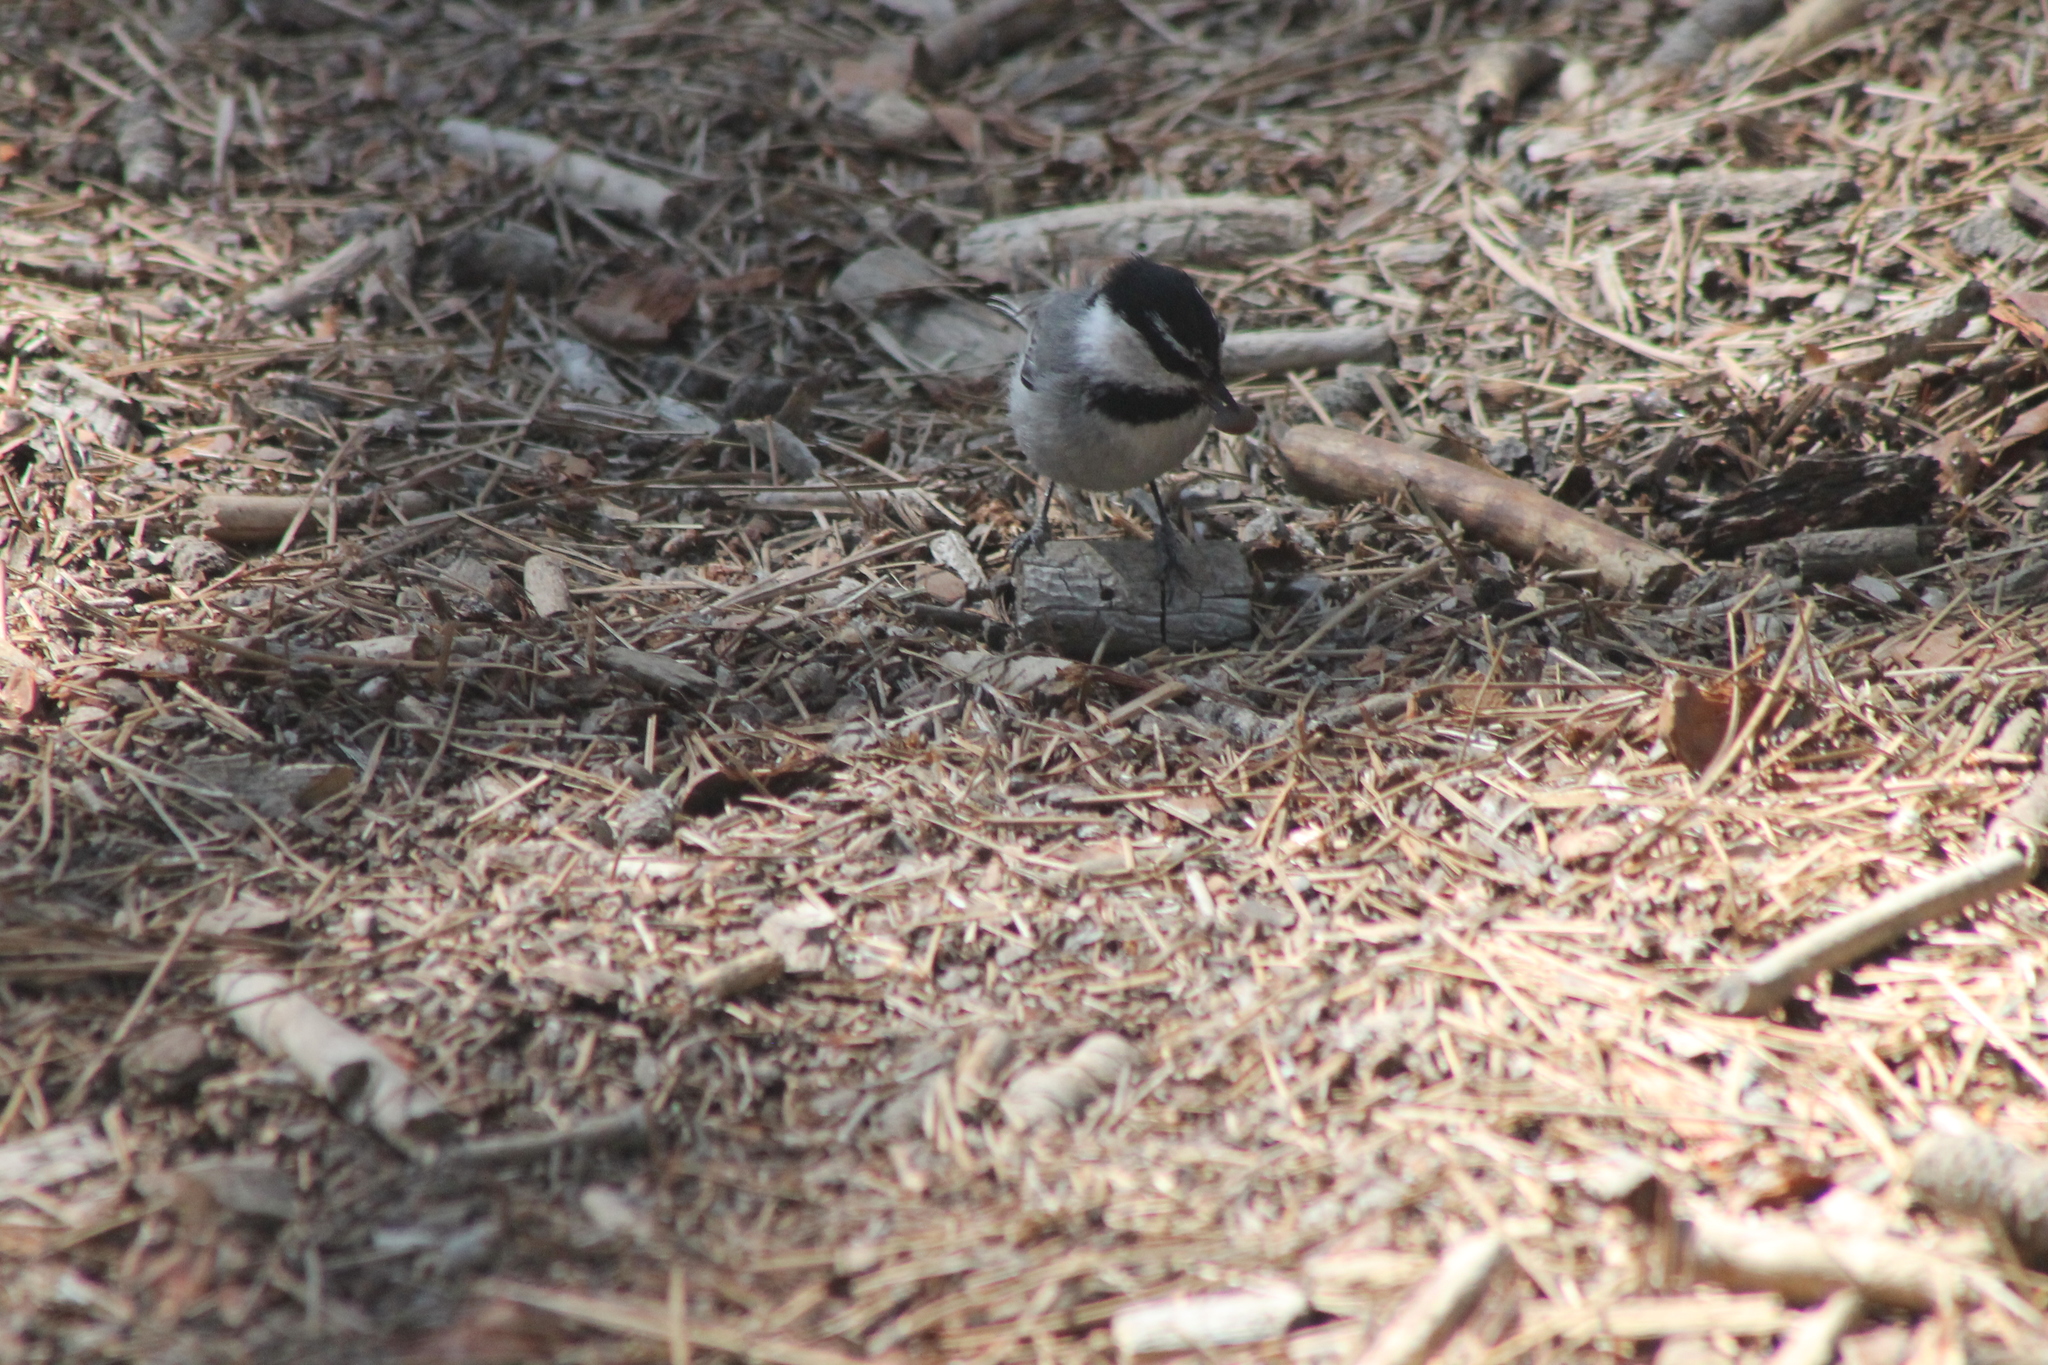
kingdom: Animalia
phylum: Chordata
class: Aves
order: Passeriformes
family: Paridae
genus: Poecile
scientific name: Poecile gambeli
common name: Mountain chickadee
